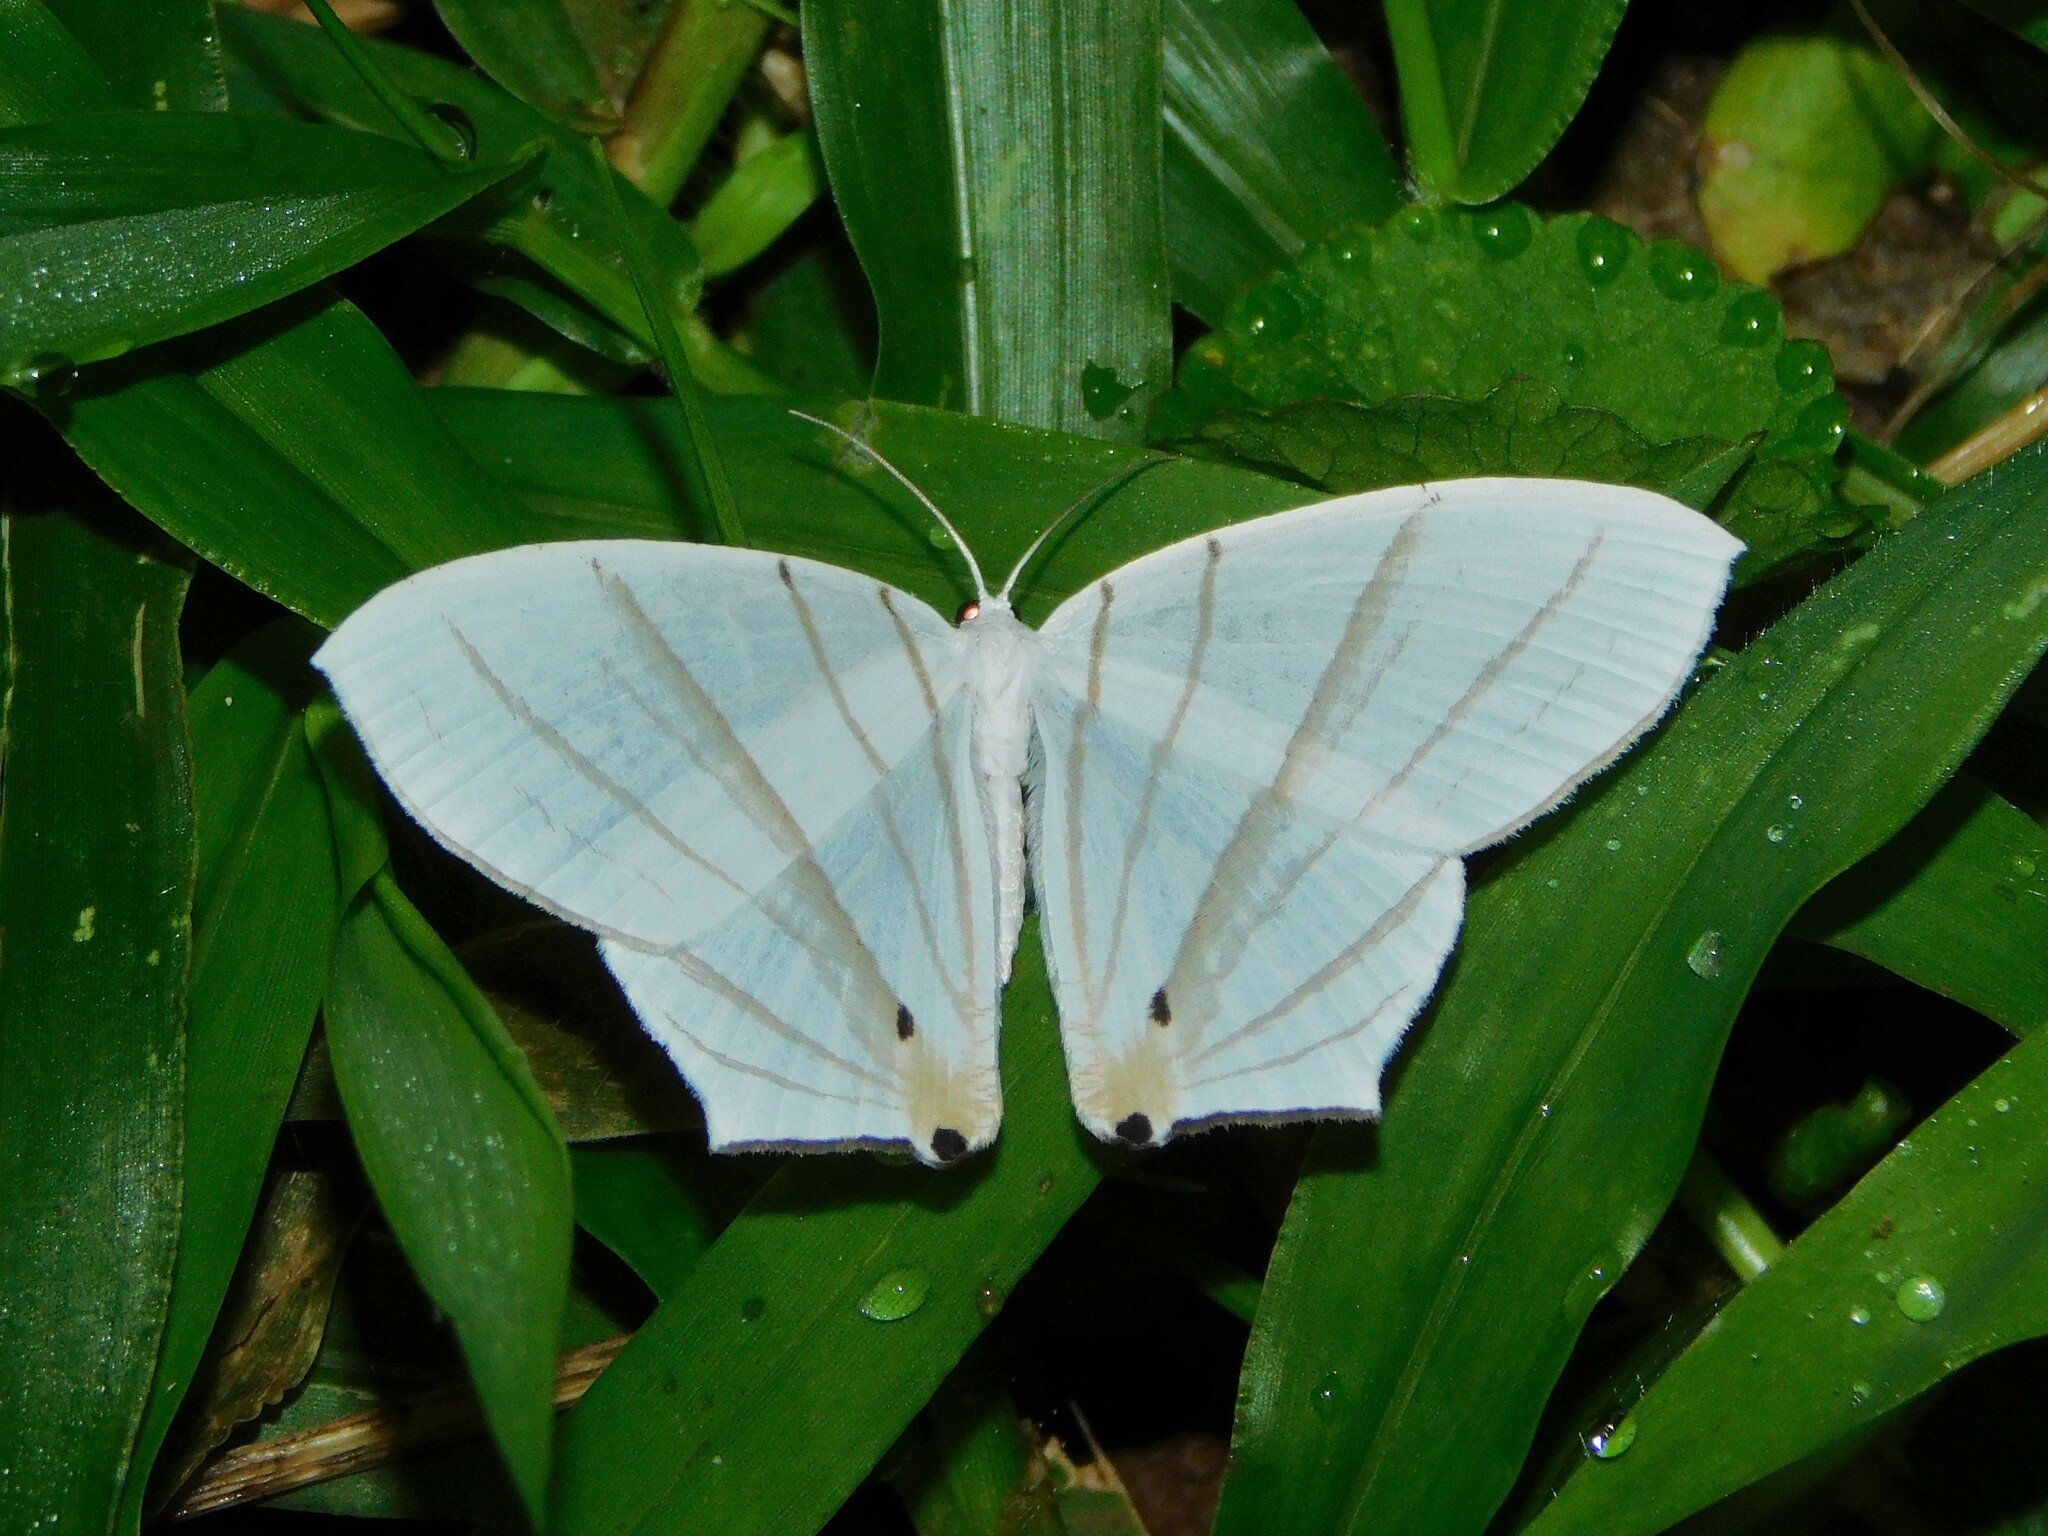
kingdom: Animalia
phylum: Arthropoda
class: Insecta
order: Lepidoptera
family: Uraniidae
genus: Dissoprumna
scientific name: Dissoprumna erycinaria
